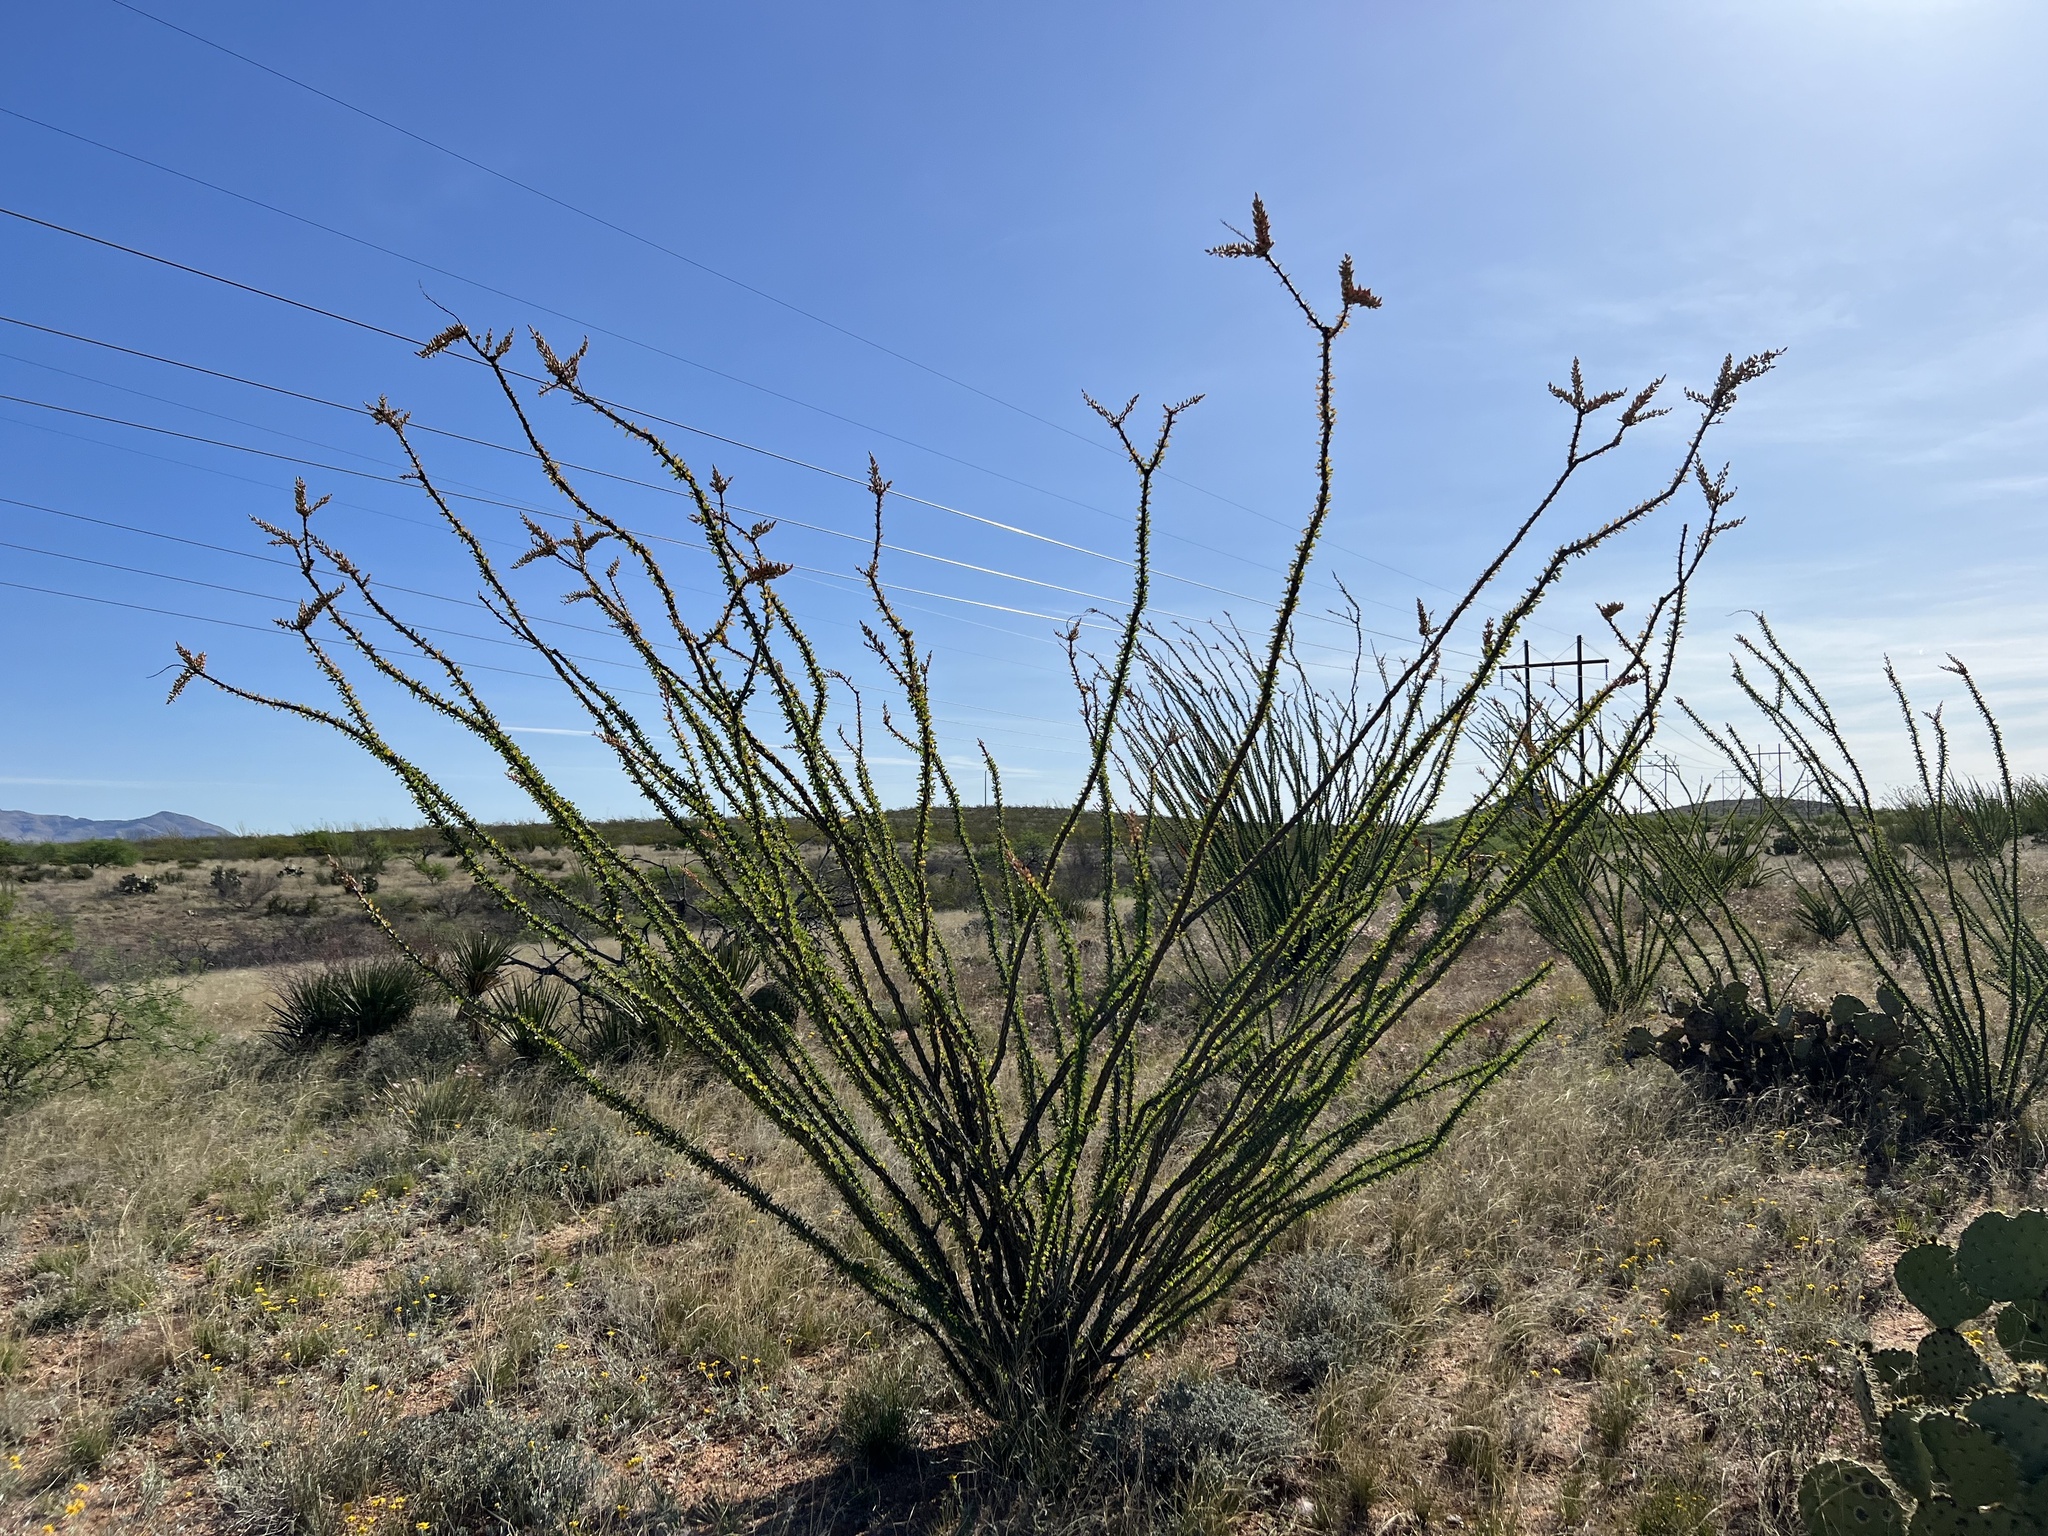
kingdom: Plantae
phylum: Tracheophyta
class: Magnoliopsida
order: Ericales
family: Fouquieriaceae
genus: Fouquieria
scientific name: Fouquieria splendens
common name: Vine-cactus
